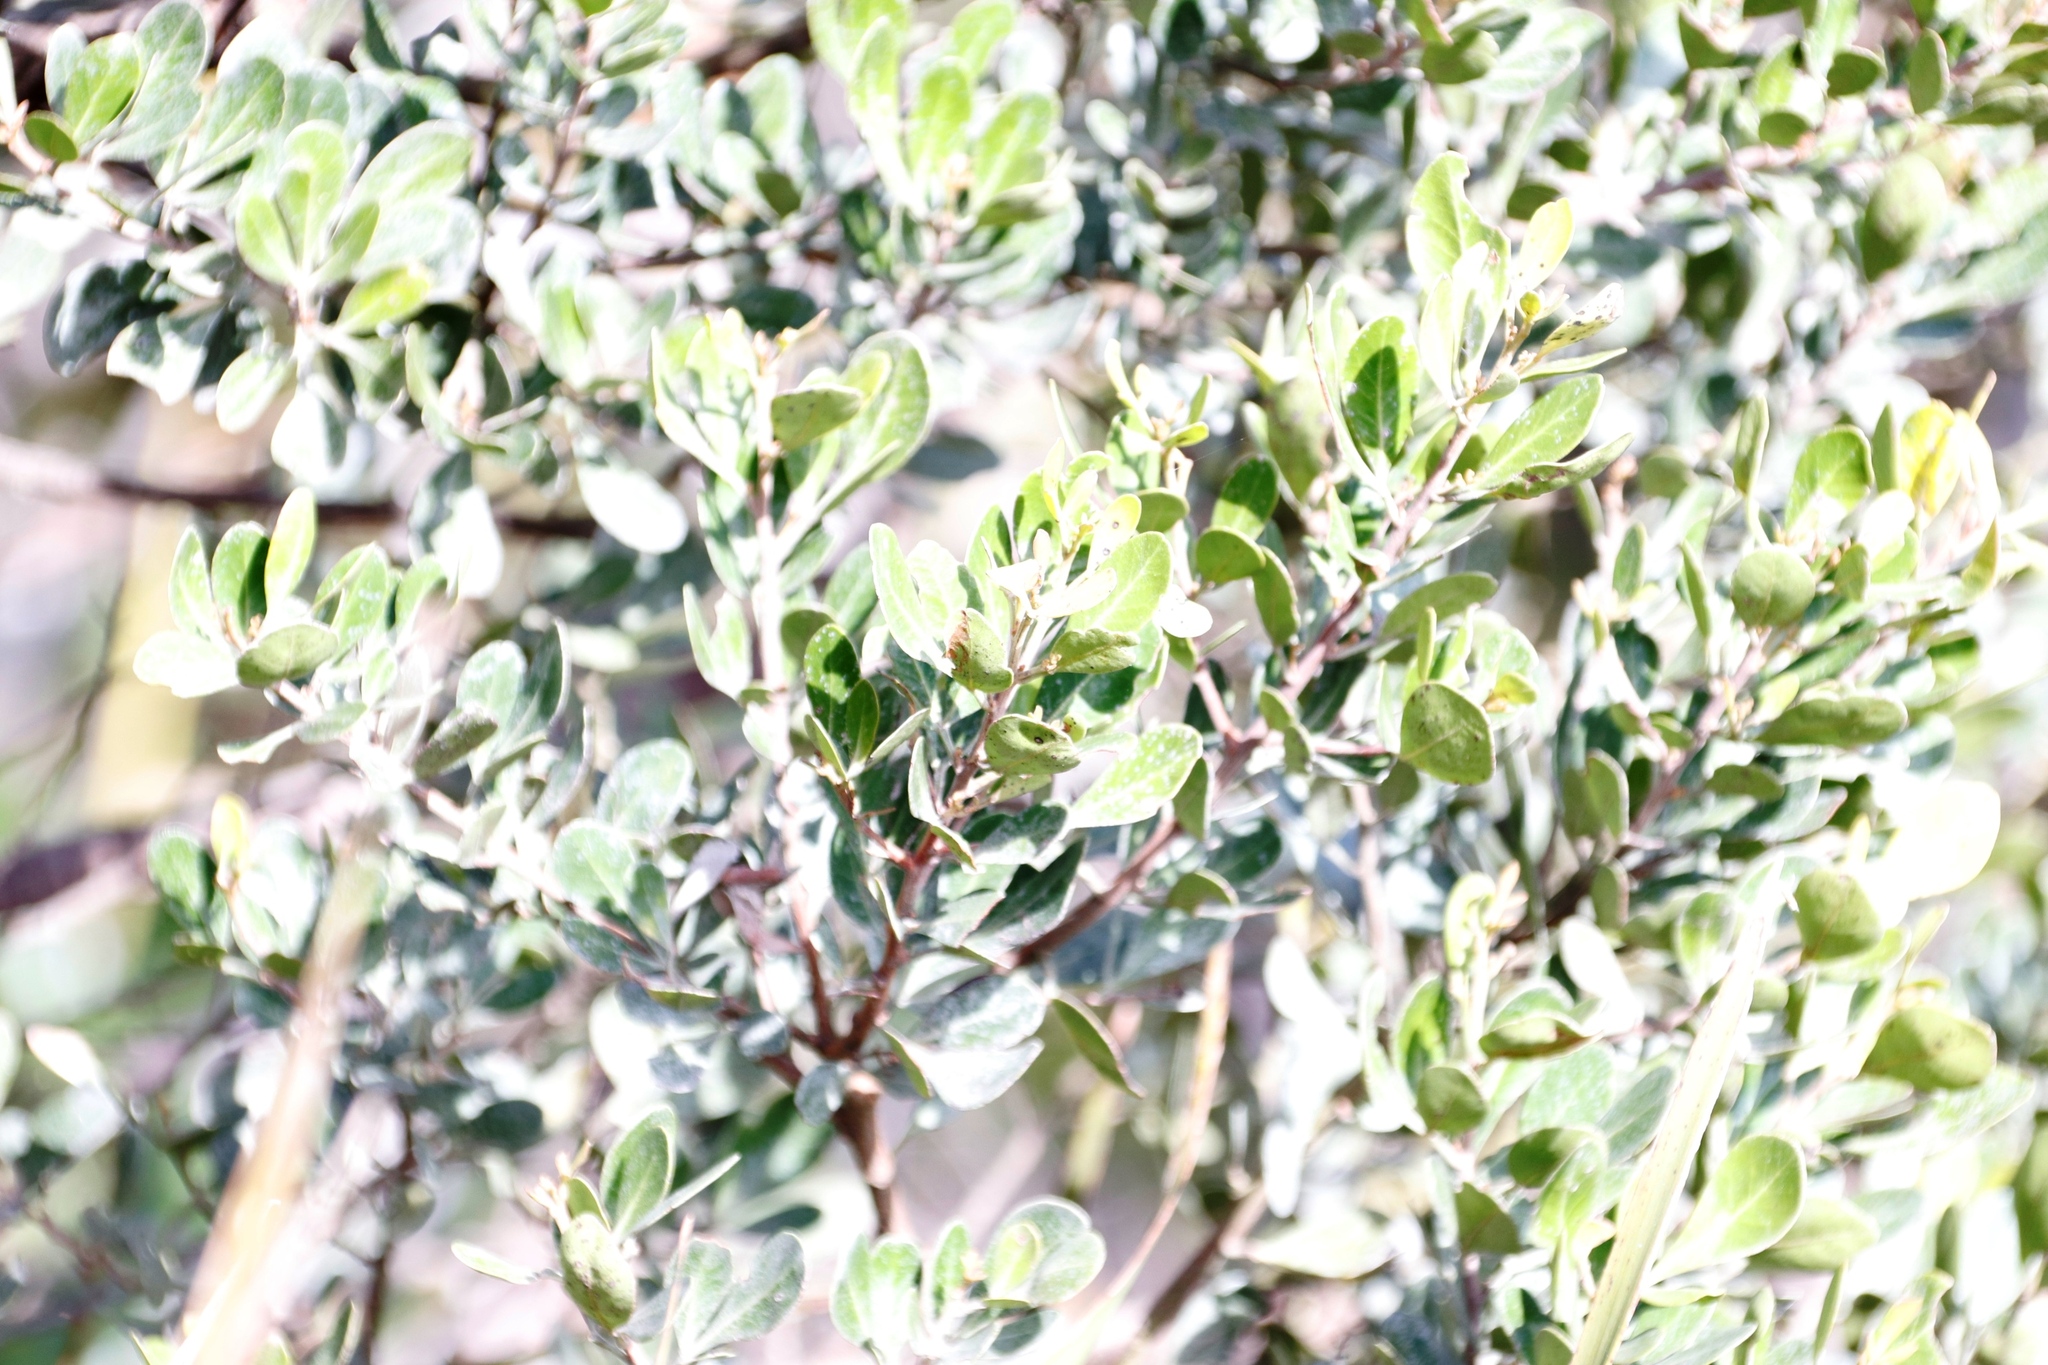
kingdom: Plantae
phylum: Tracheophyta
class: Magnoliopsida
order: Sapindales
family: Anacardiaceae
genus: Searsia
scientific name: Searsia lucida
